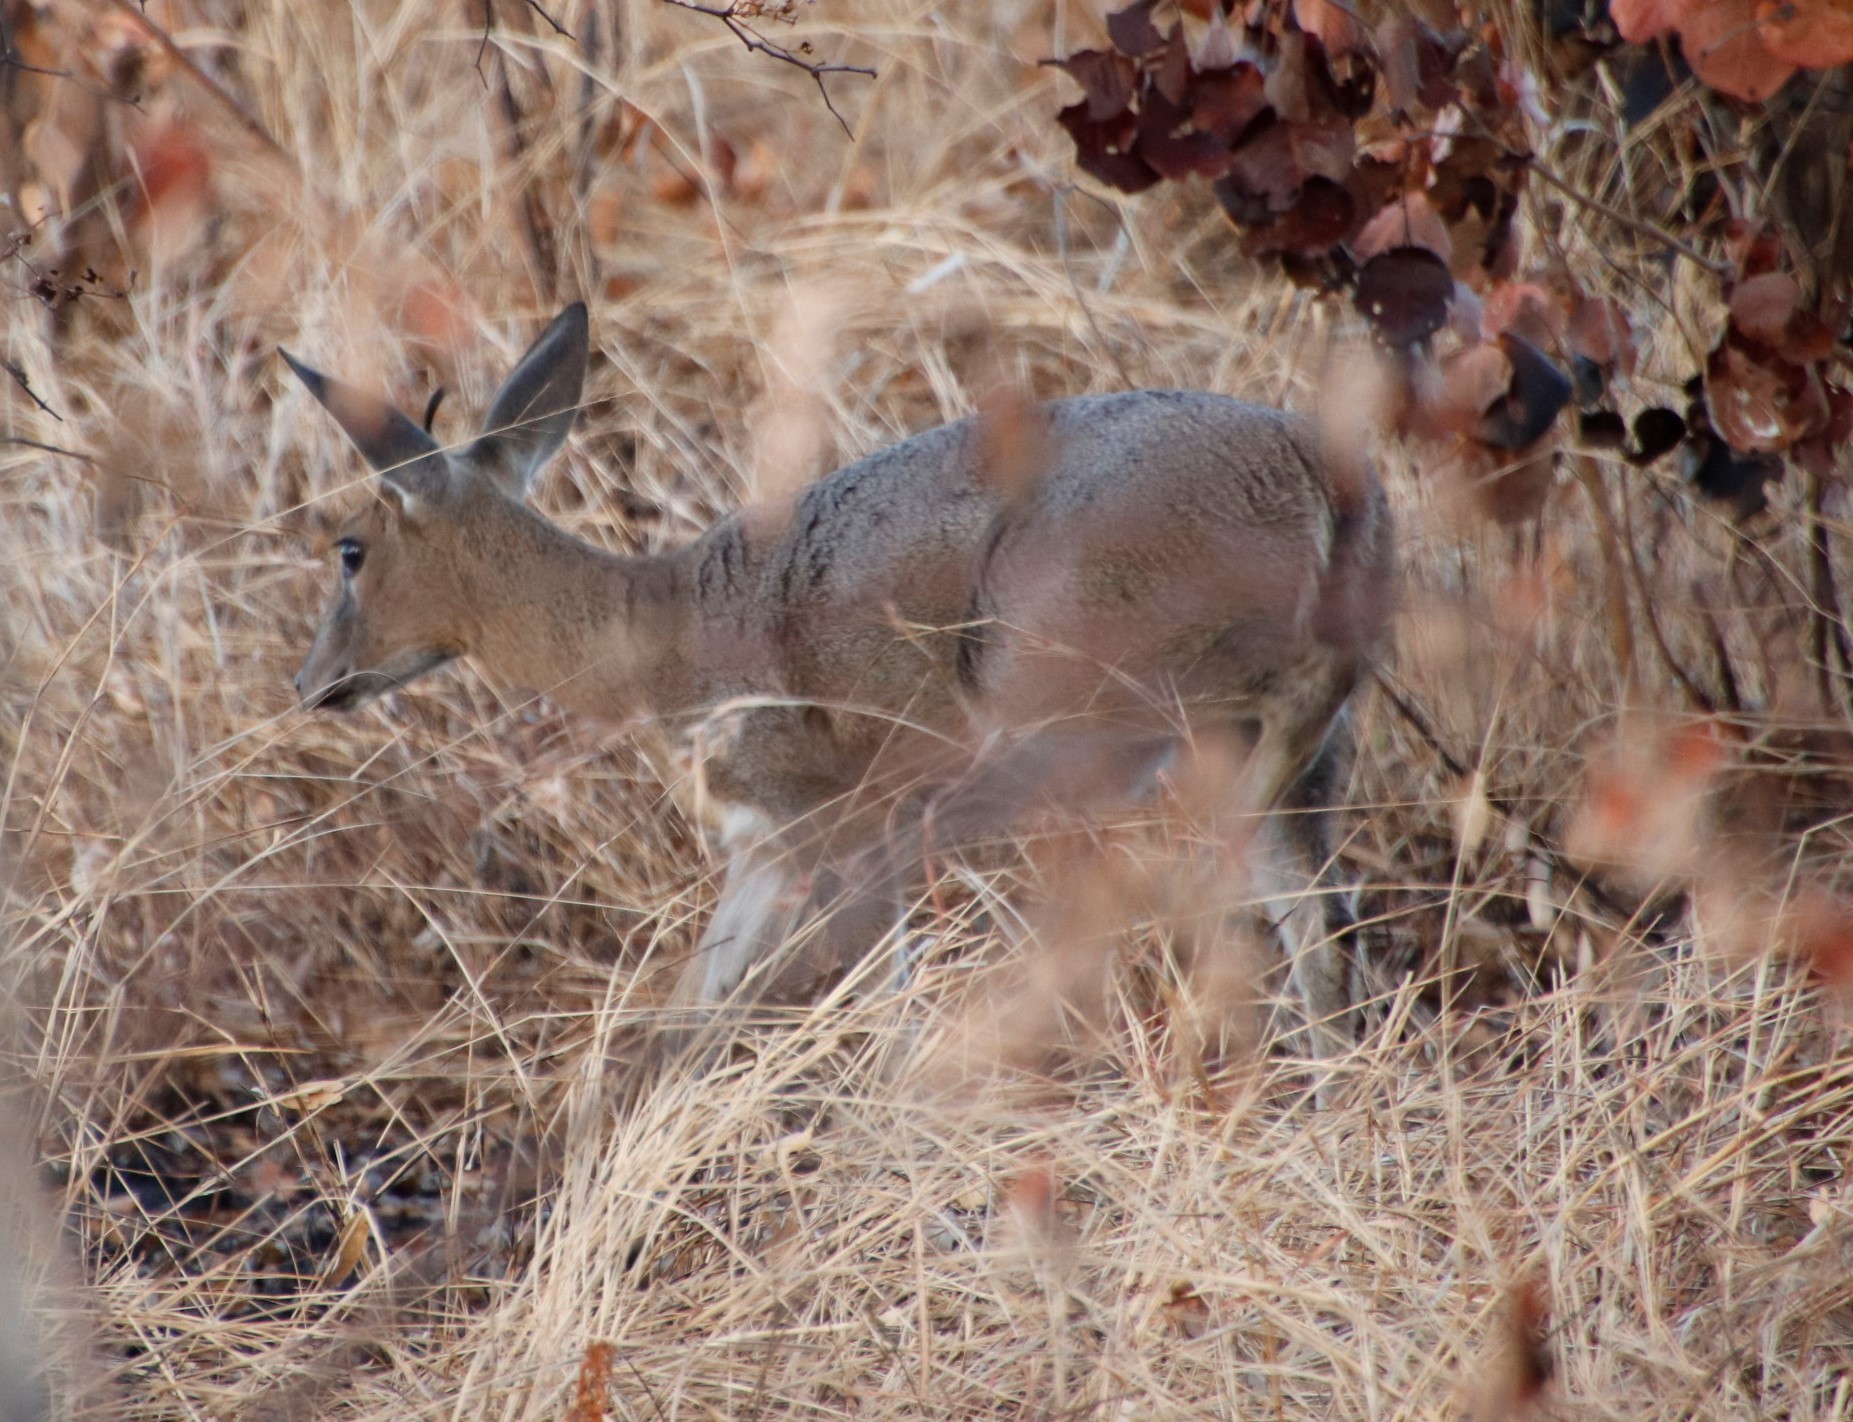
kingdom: Animalia
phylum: Chordata
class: Mammalia
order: Artiodactyla
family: Bovidae
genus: Sylvicapra
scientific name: Sylvicapra grimmia
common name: Bush duiker
